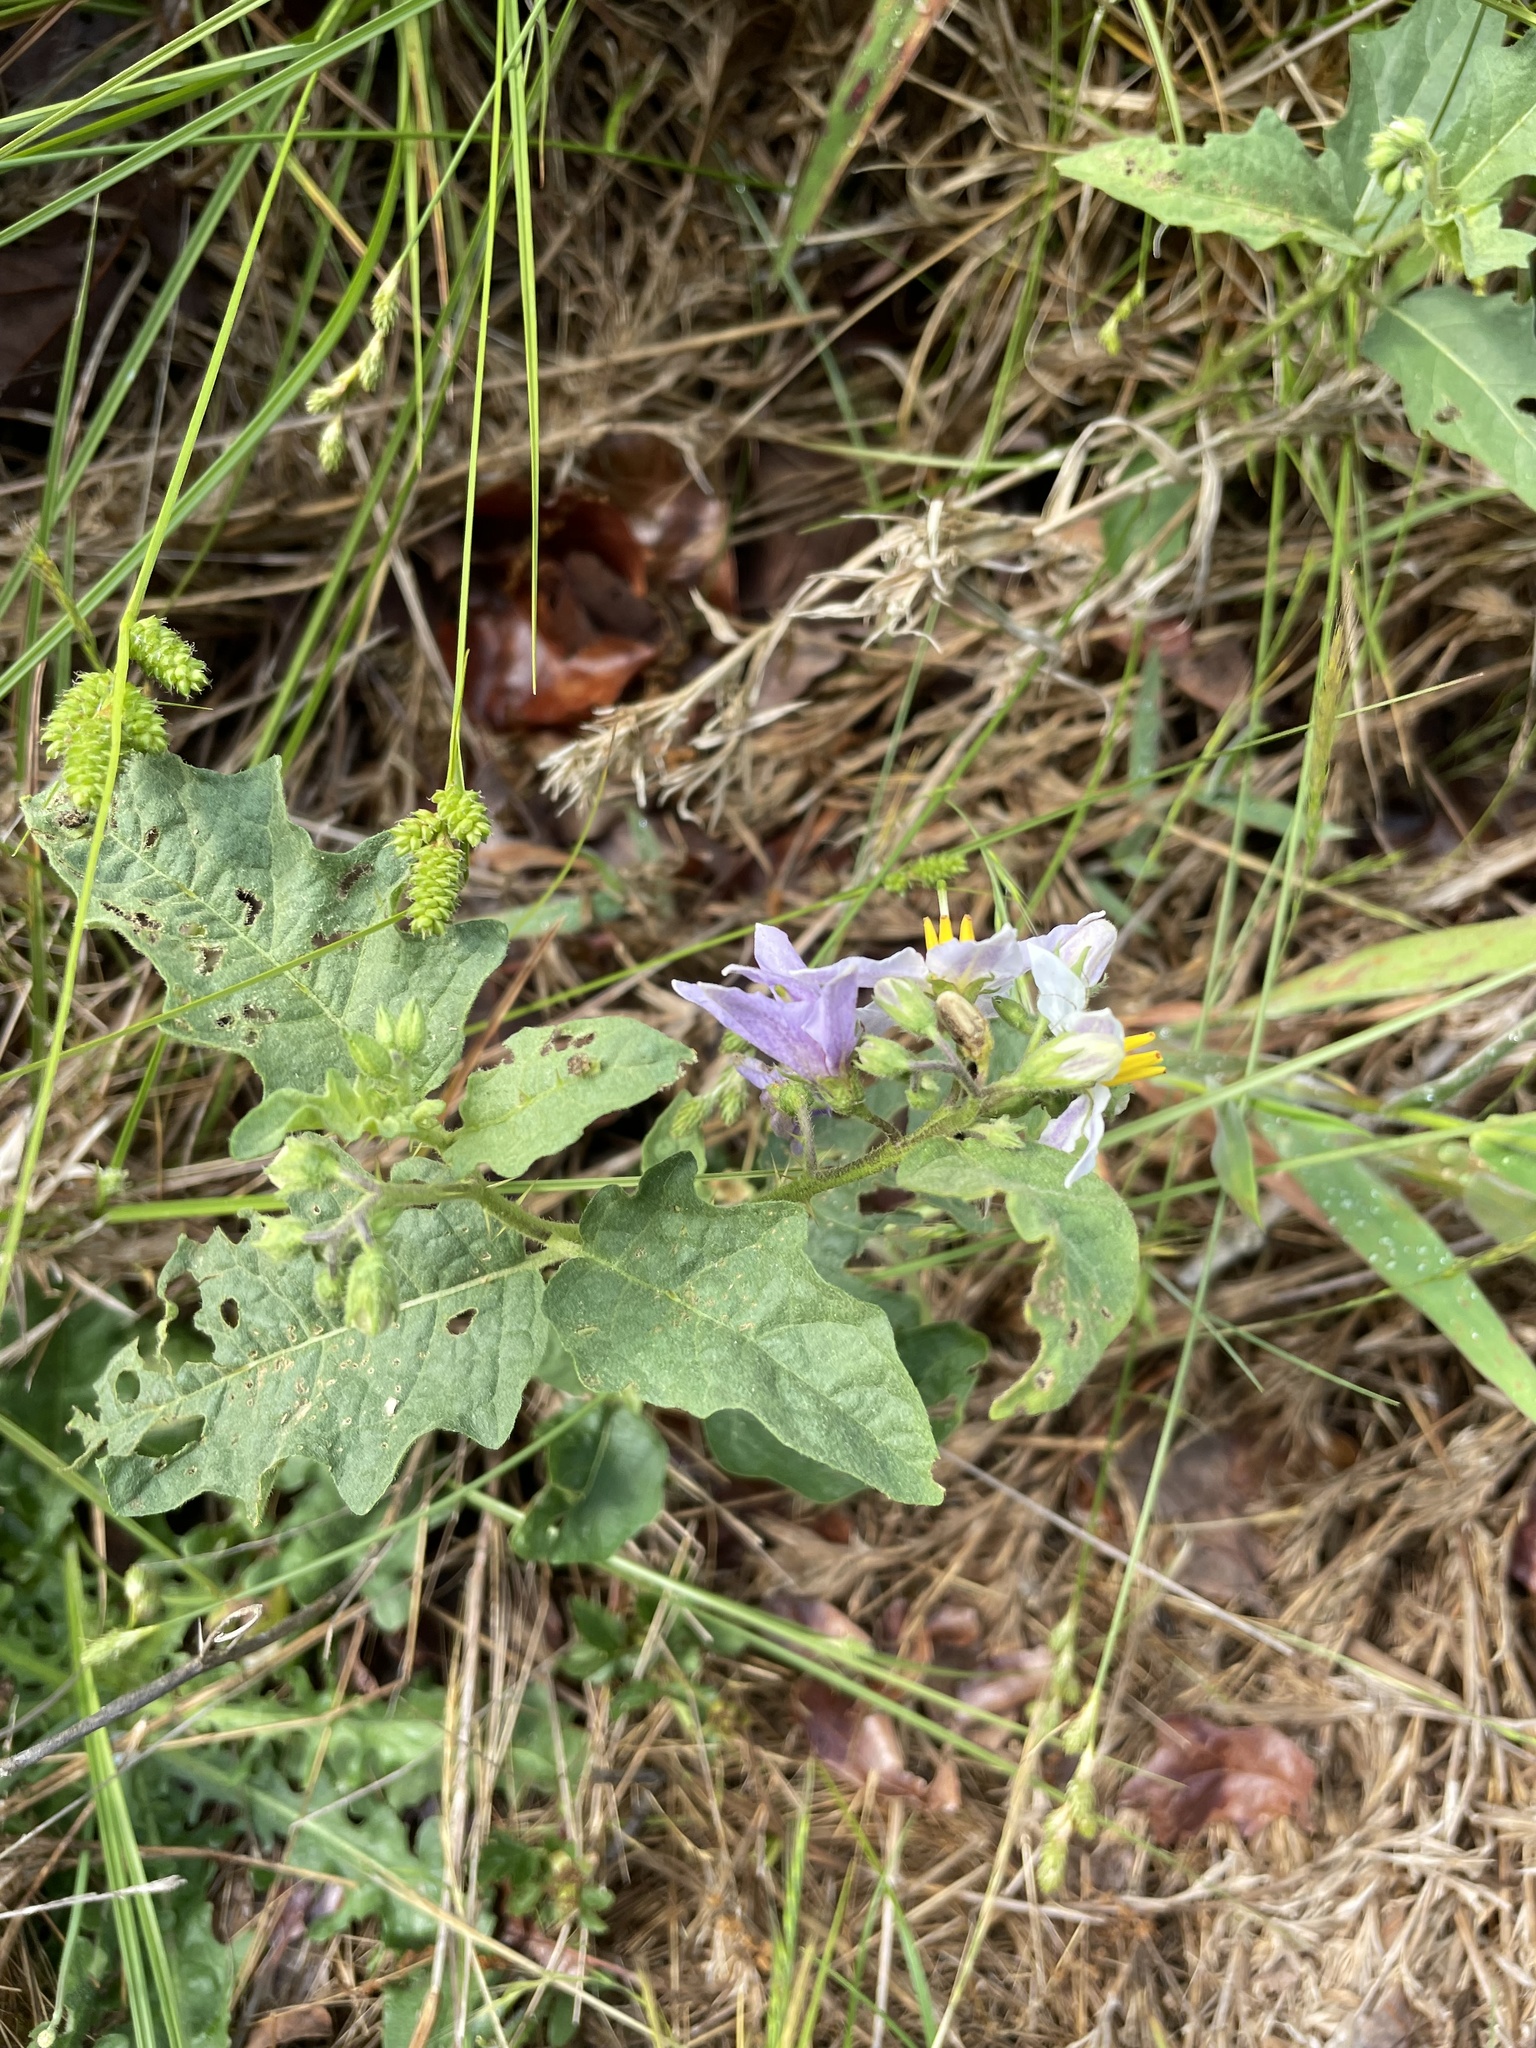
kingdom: Plantae
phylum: Tracheophyta
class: Magnoliopsida
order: Solanales
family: Solanaceae
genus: Solanum
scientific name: Solanum carolinense
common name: Horse-nettle
